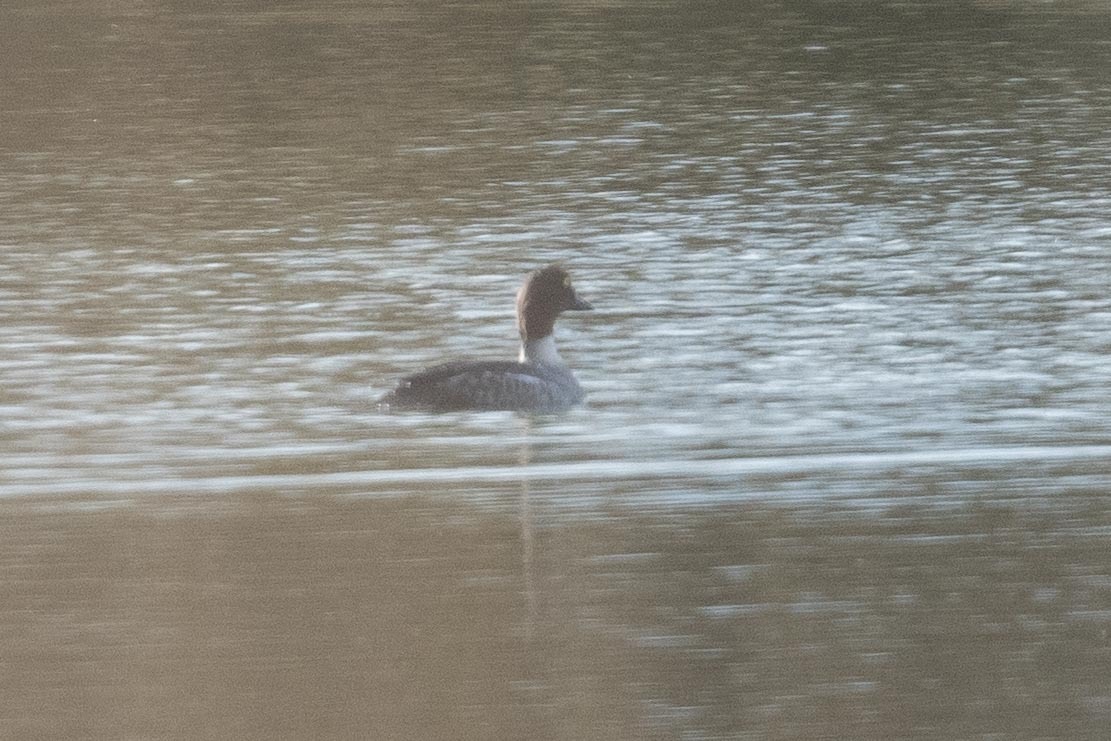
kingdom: Animalia
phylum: Chordata
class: Aves
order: Anseriformes
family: Anatidae
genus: Bucephala
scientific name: Bucephala clangula
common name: Common goldeneye
